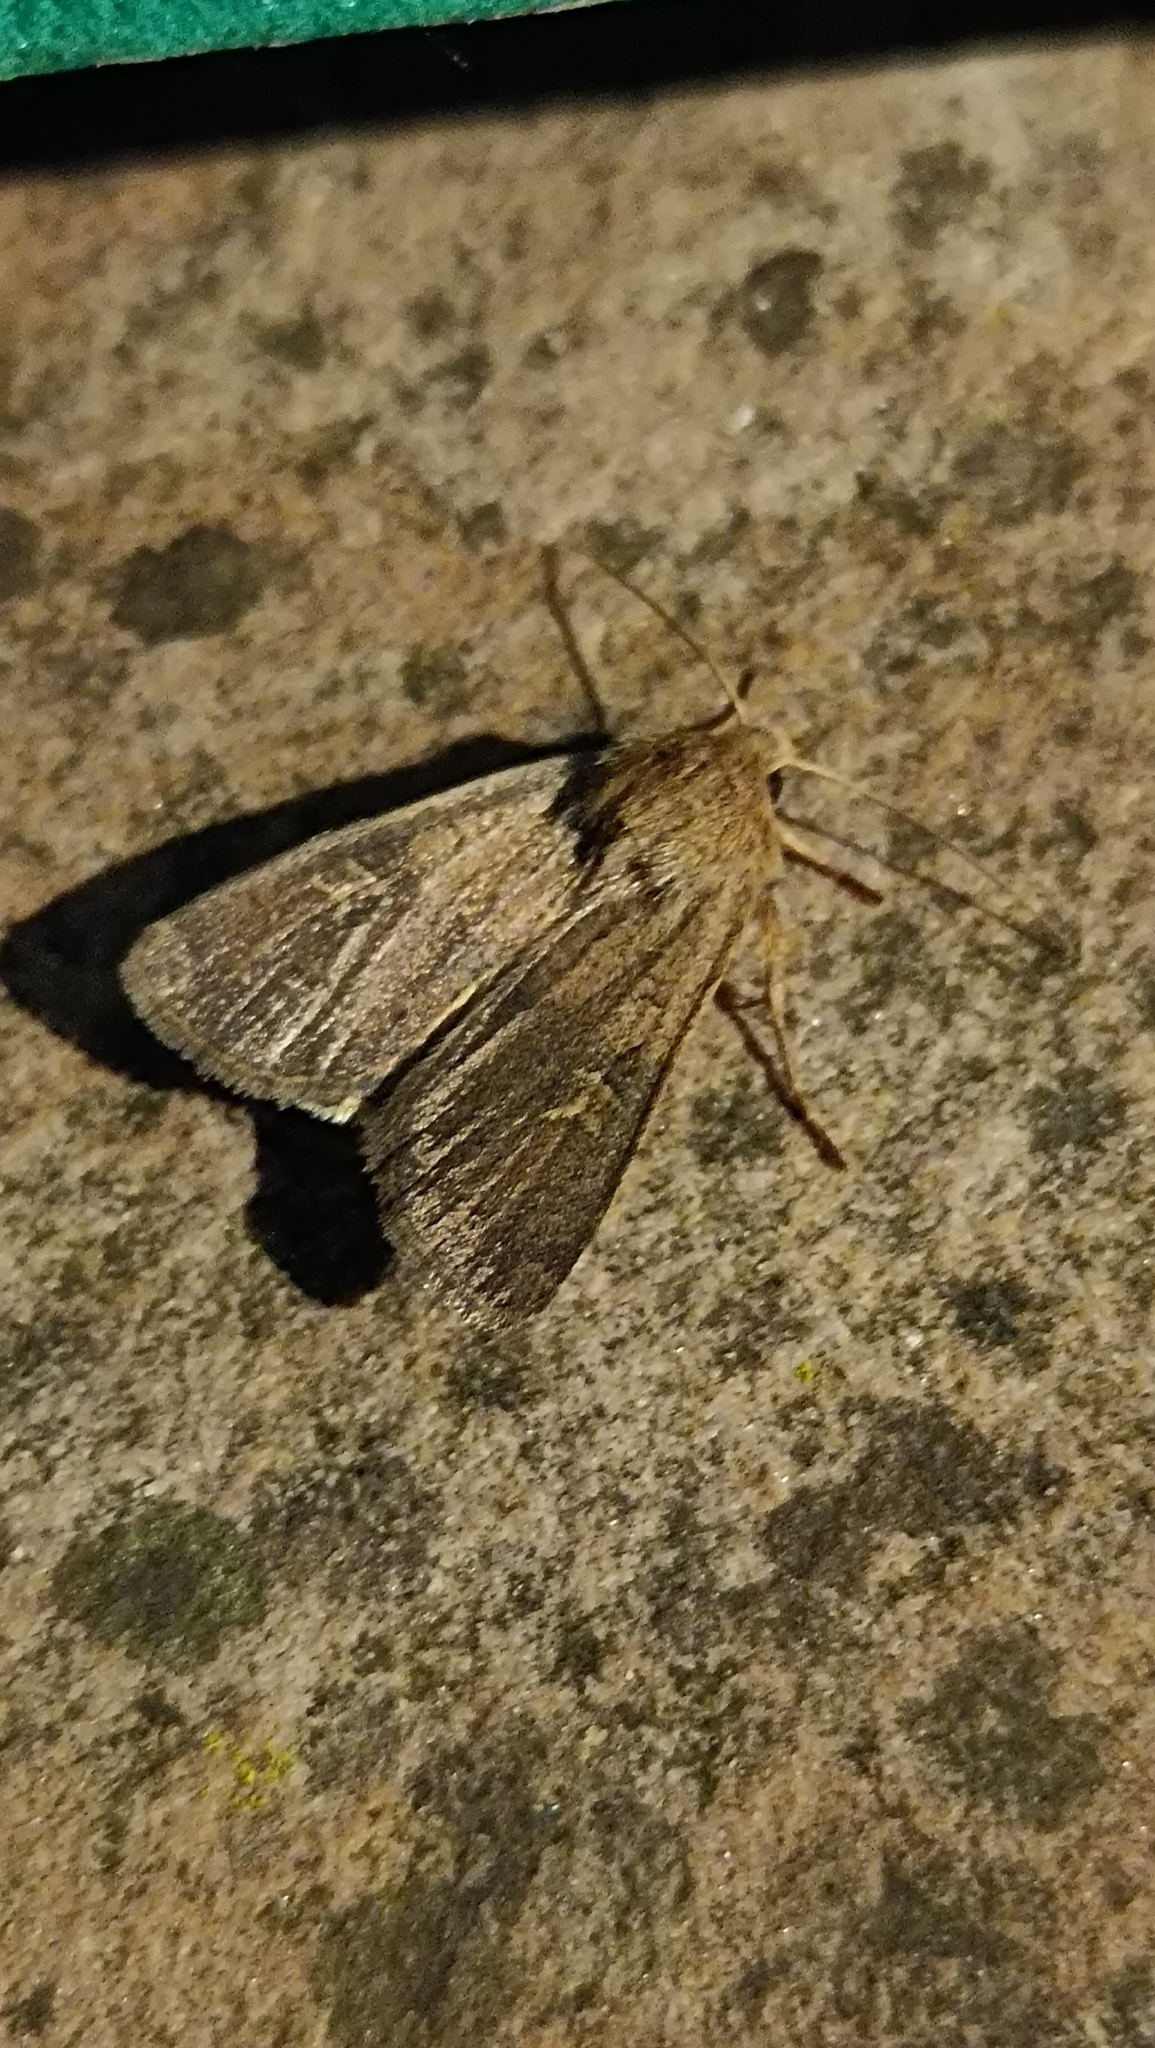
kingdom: Animalia
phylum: Arthropoda
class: Insecta
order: Lepidoptera
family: Noctuidae
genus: Xestia
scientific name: Xestia xanthographa
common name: Square-spot rustic
